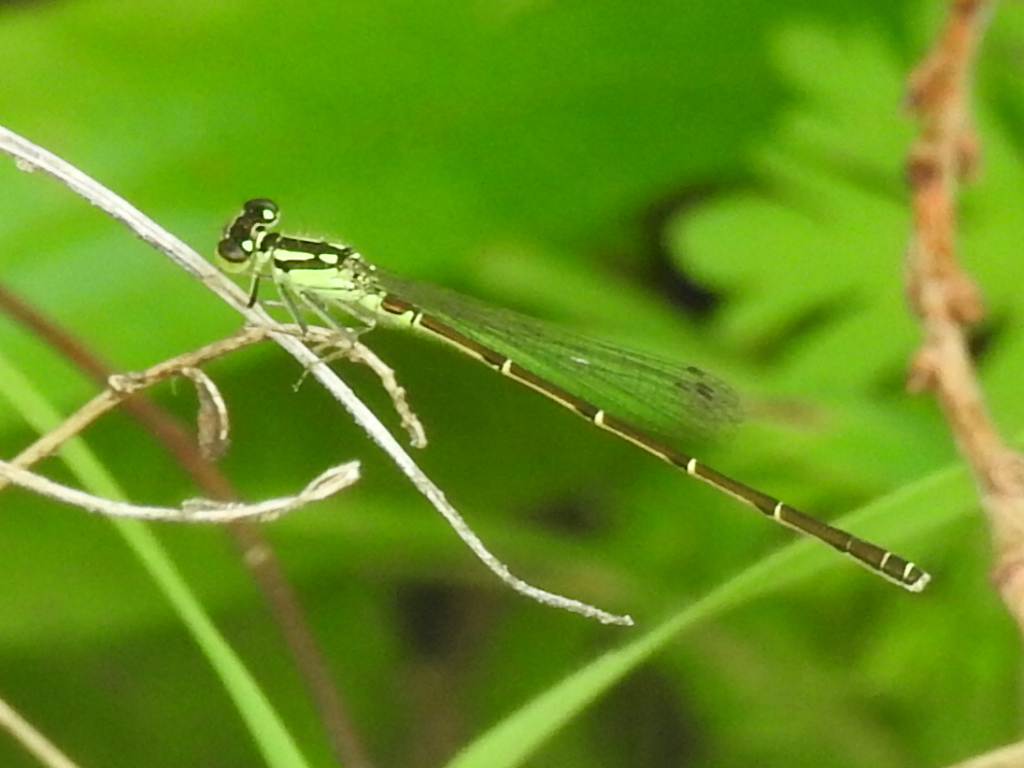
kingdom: Animalia
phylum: Arthropoda
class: Insecta
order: Odonata
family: Coenagrionidae
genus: Ischnura
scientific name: Ischnura posita
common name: Fragile forktail
